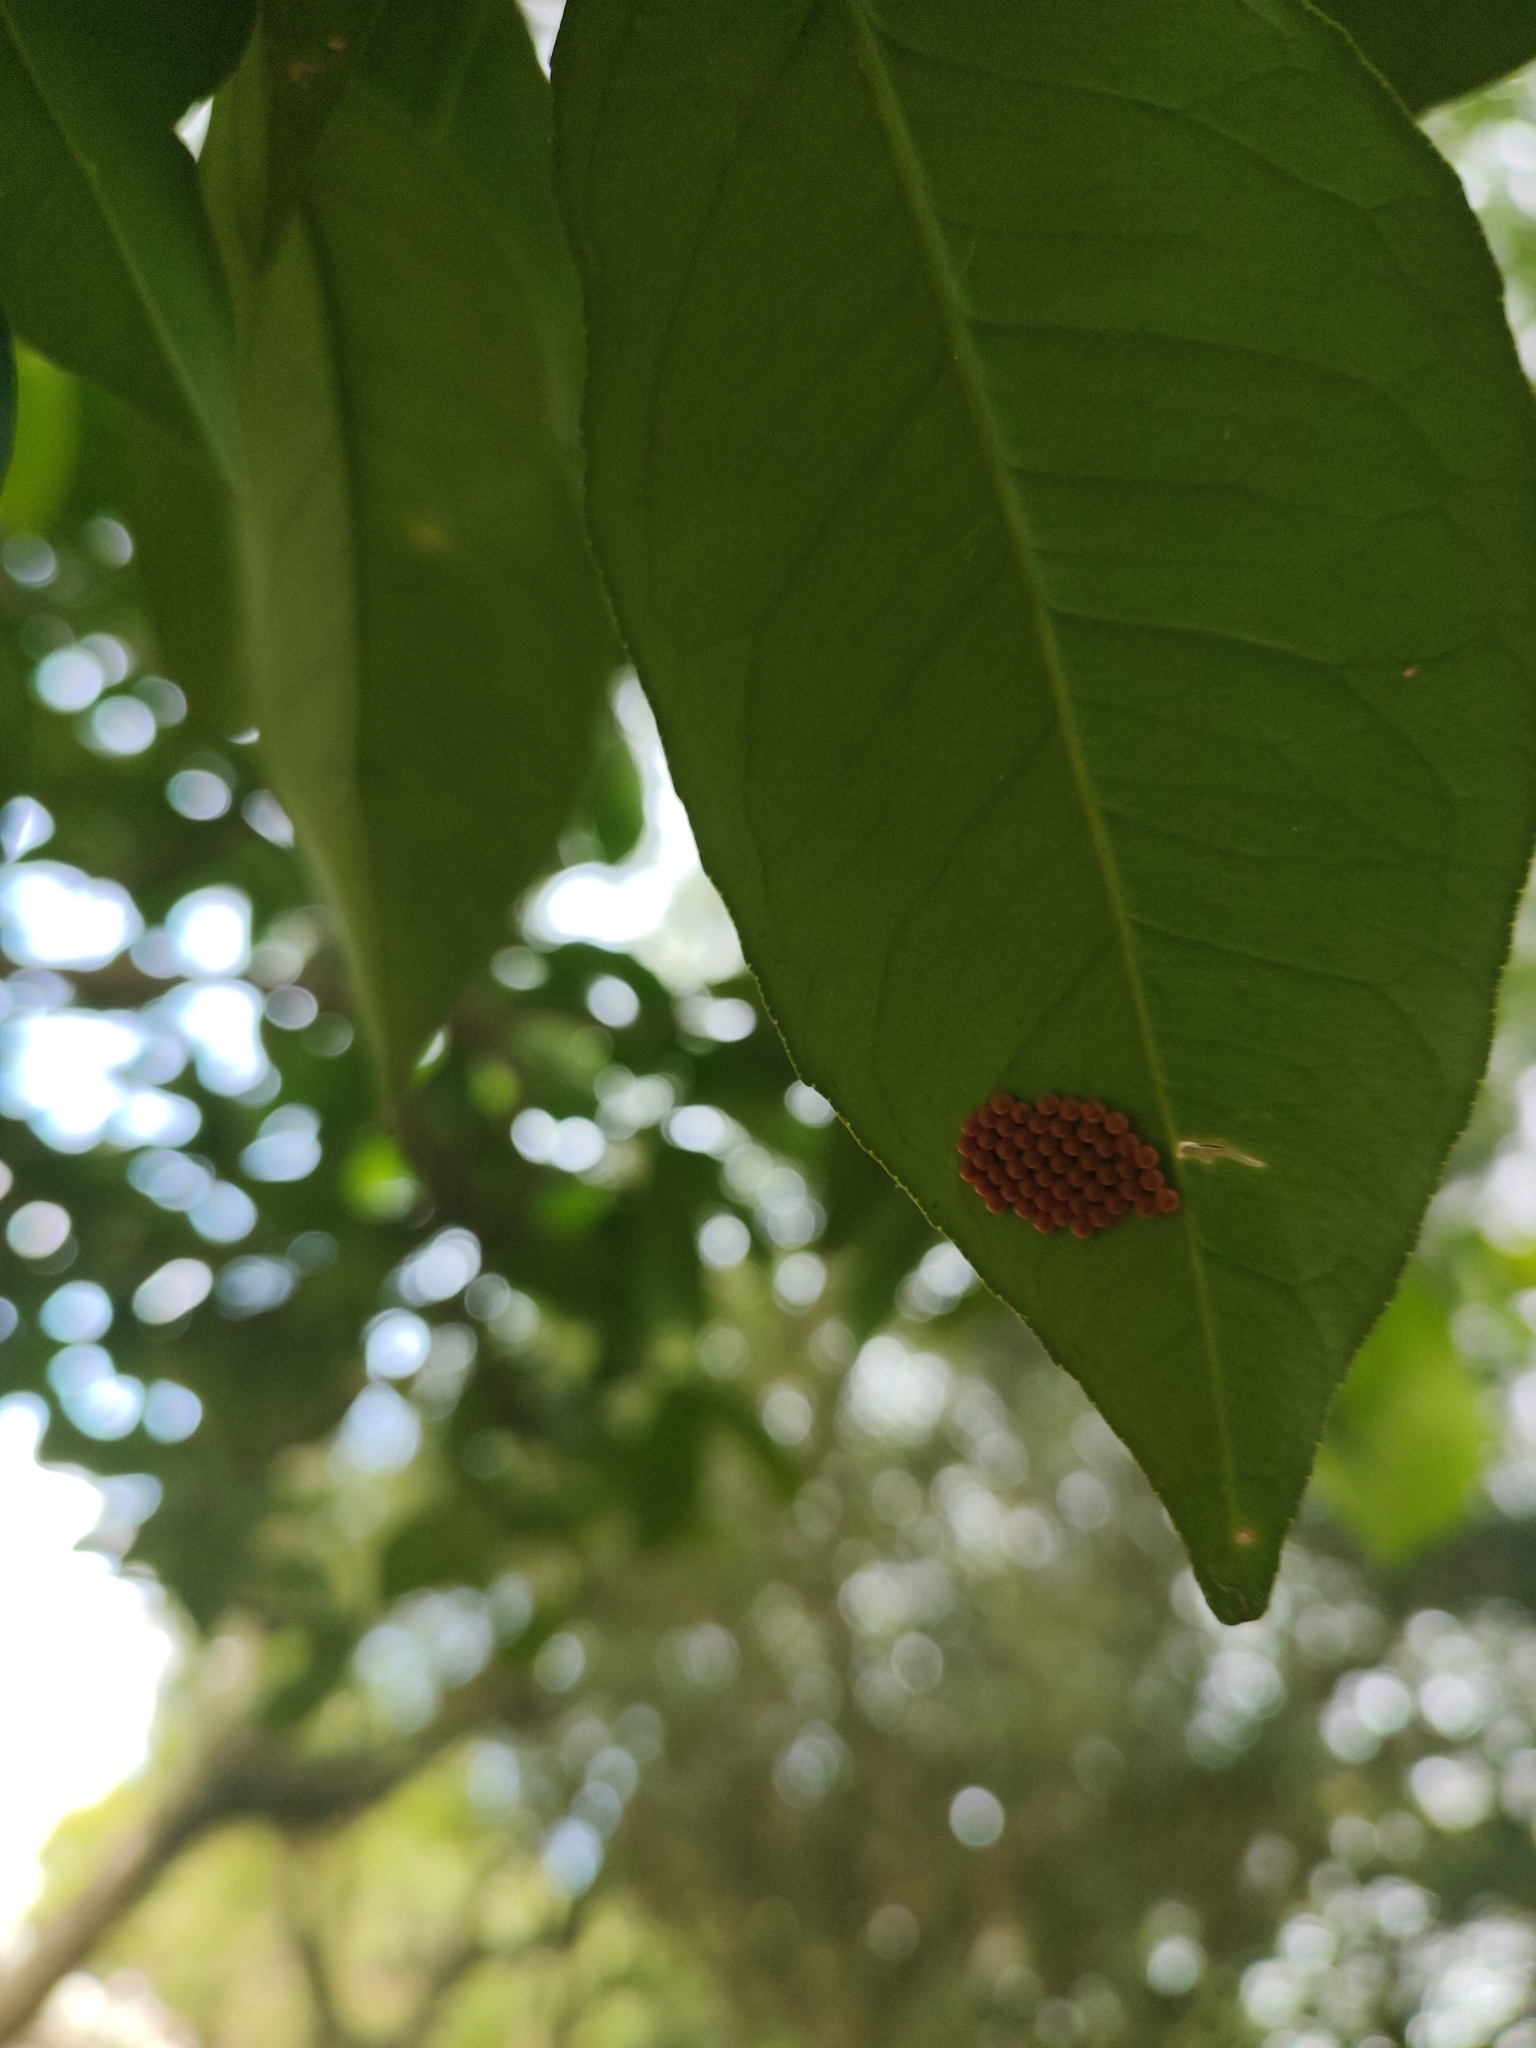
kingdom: Animalia
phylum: Arthropoda
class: Insecta
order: Lepidoptera
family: Papilionidae
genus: Papilio
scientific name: Papilio anchisiades
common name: Idaes swallowtail
